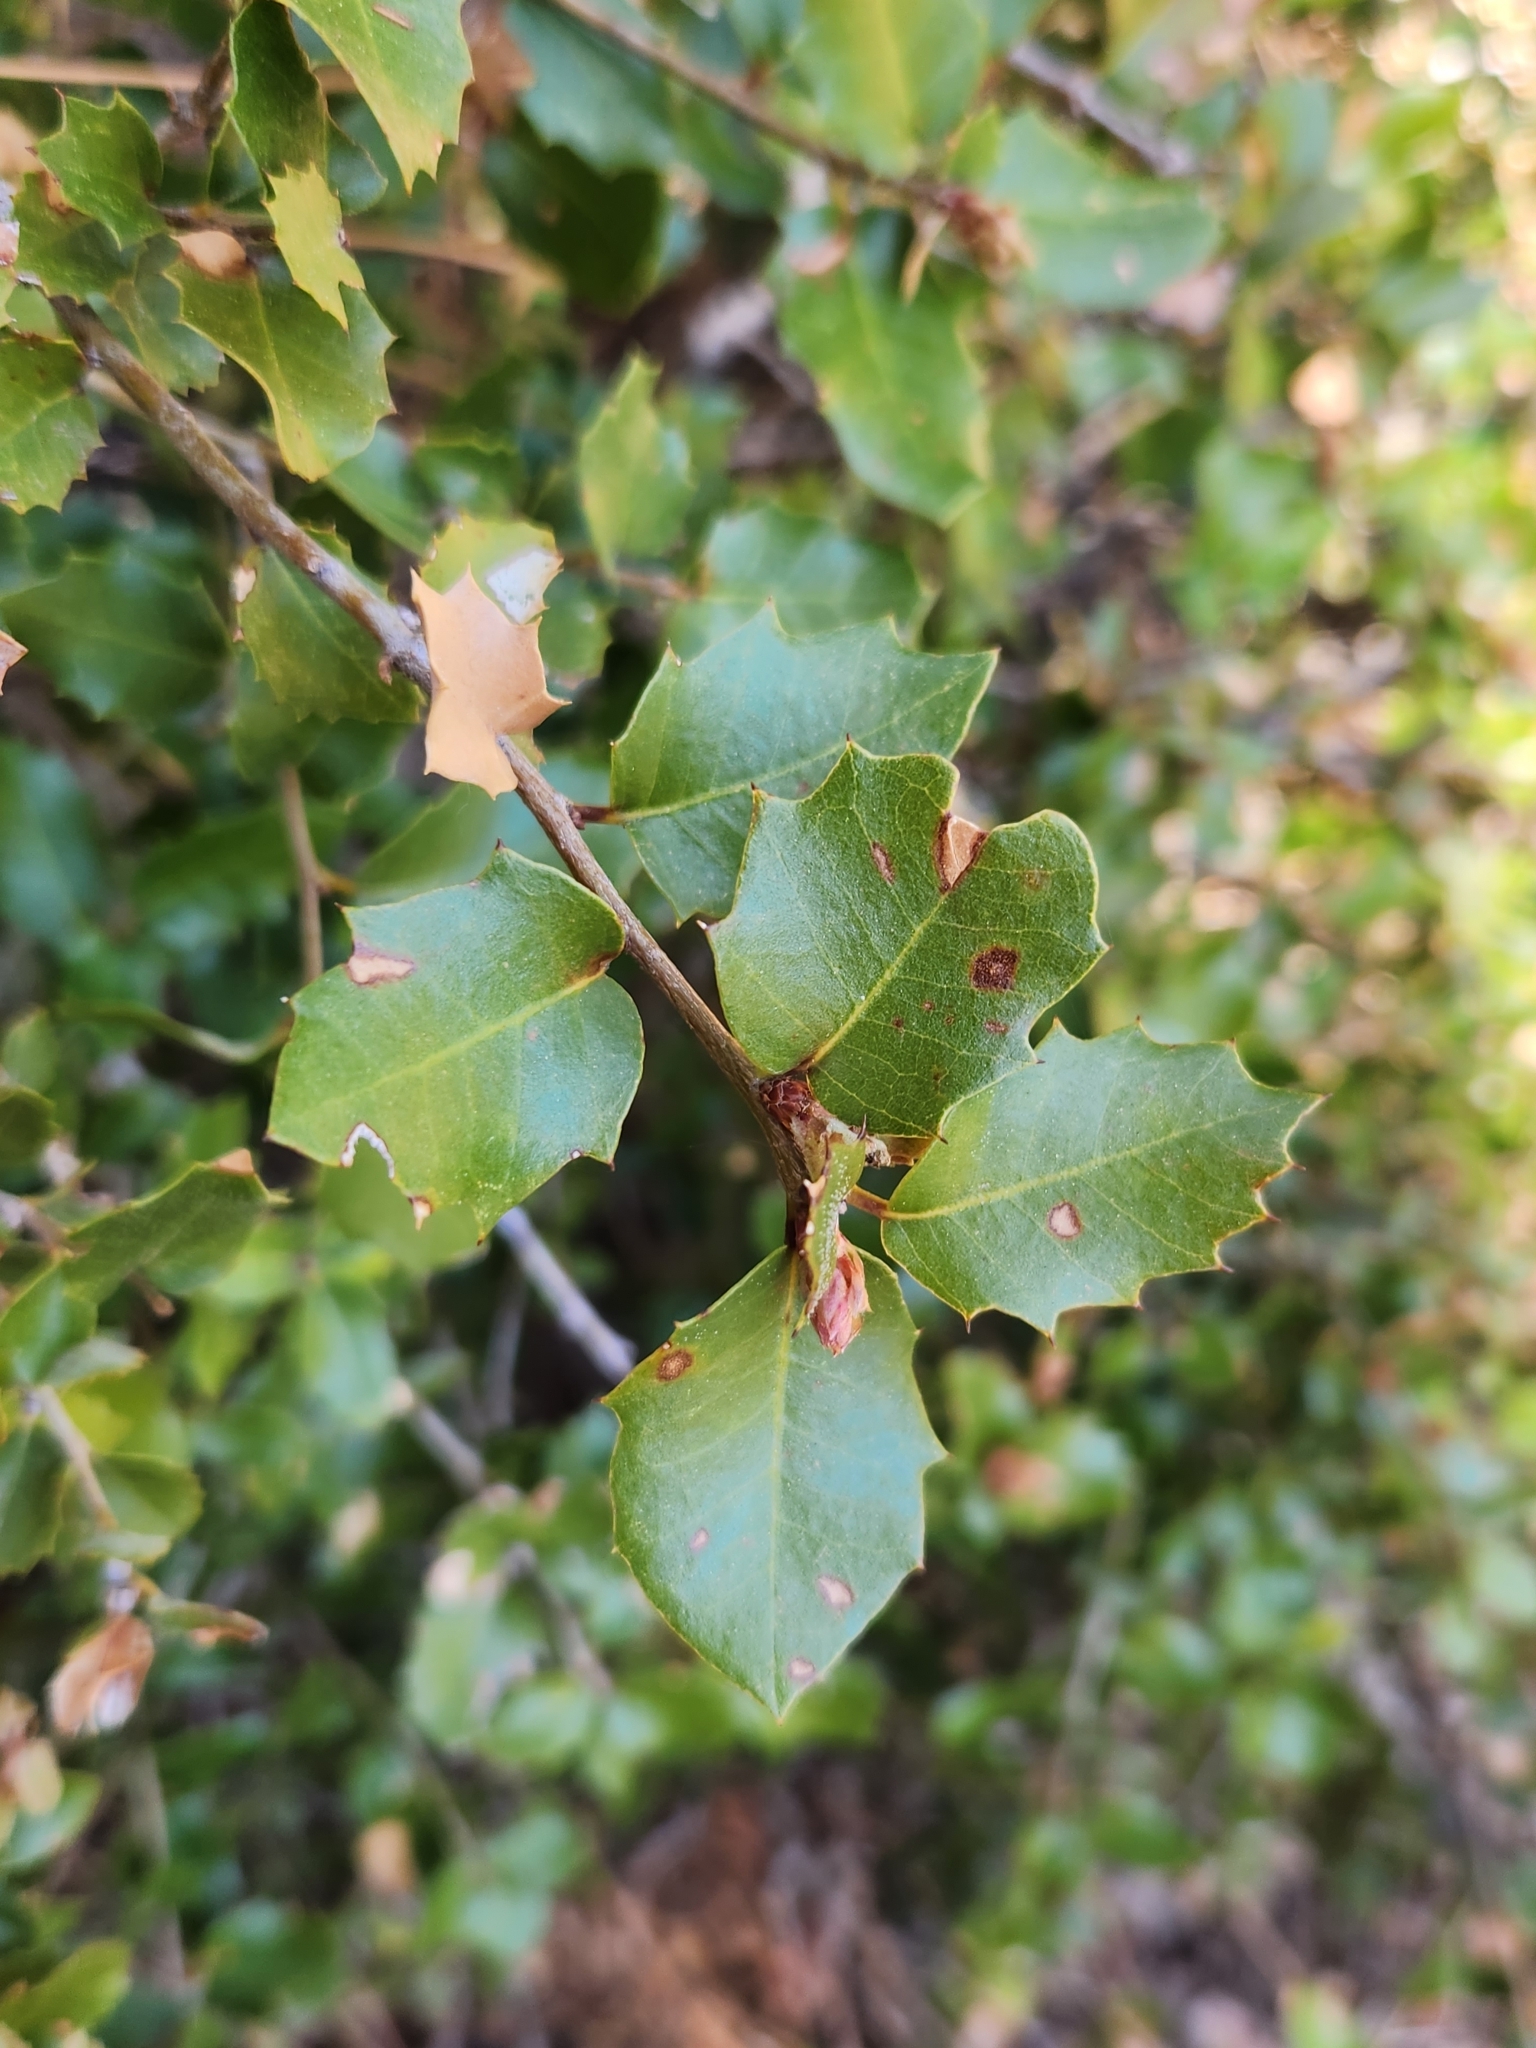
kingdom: Plantae
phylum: Tracheophyta
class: Magnoliopsida
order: Fagales
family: Fagaceae
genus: Quercus
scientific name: Quercus chrysolepis
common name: Canyon live oak
